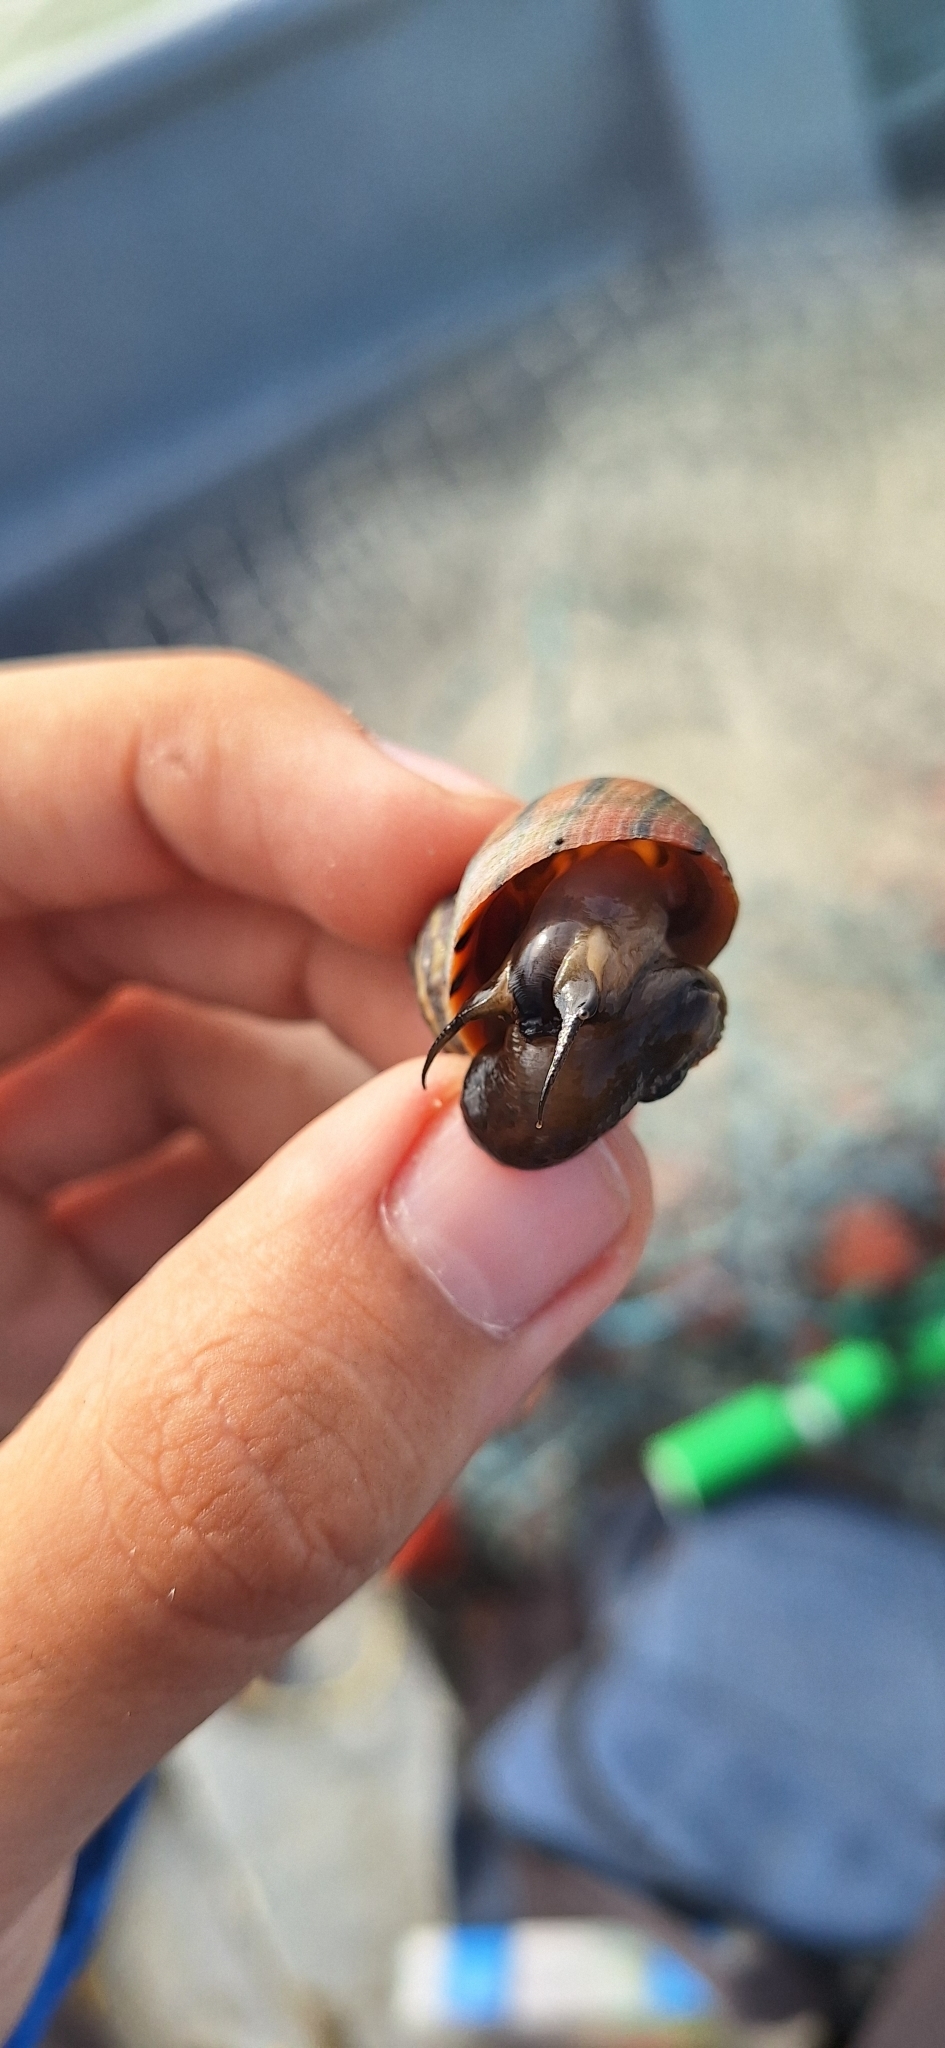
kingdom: Animalia
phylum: Mollusca
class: Gastropoda
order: Littorinimorpha
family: Littorinidae
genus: Littoraria
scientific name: Littoraria zebra
